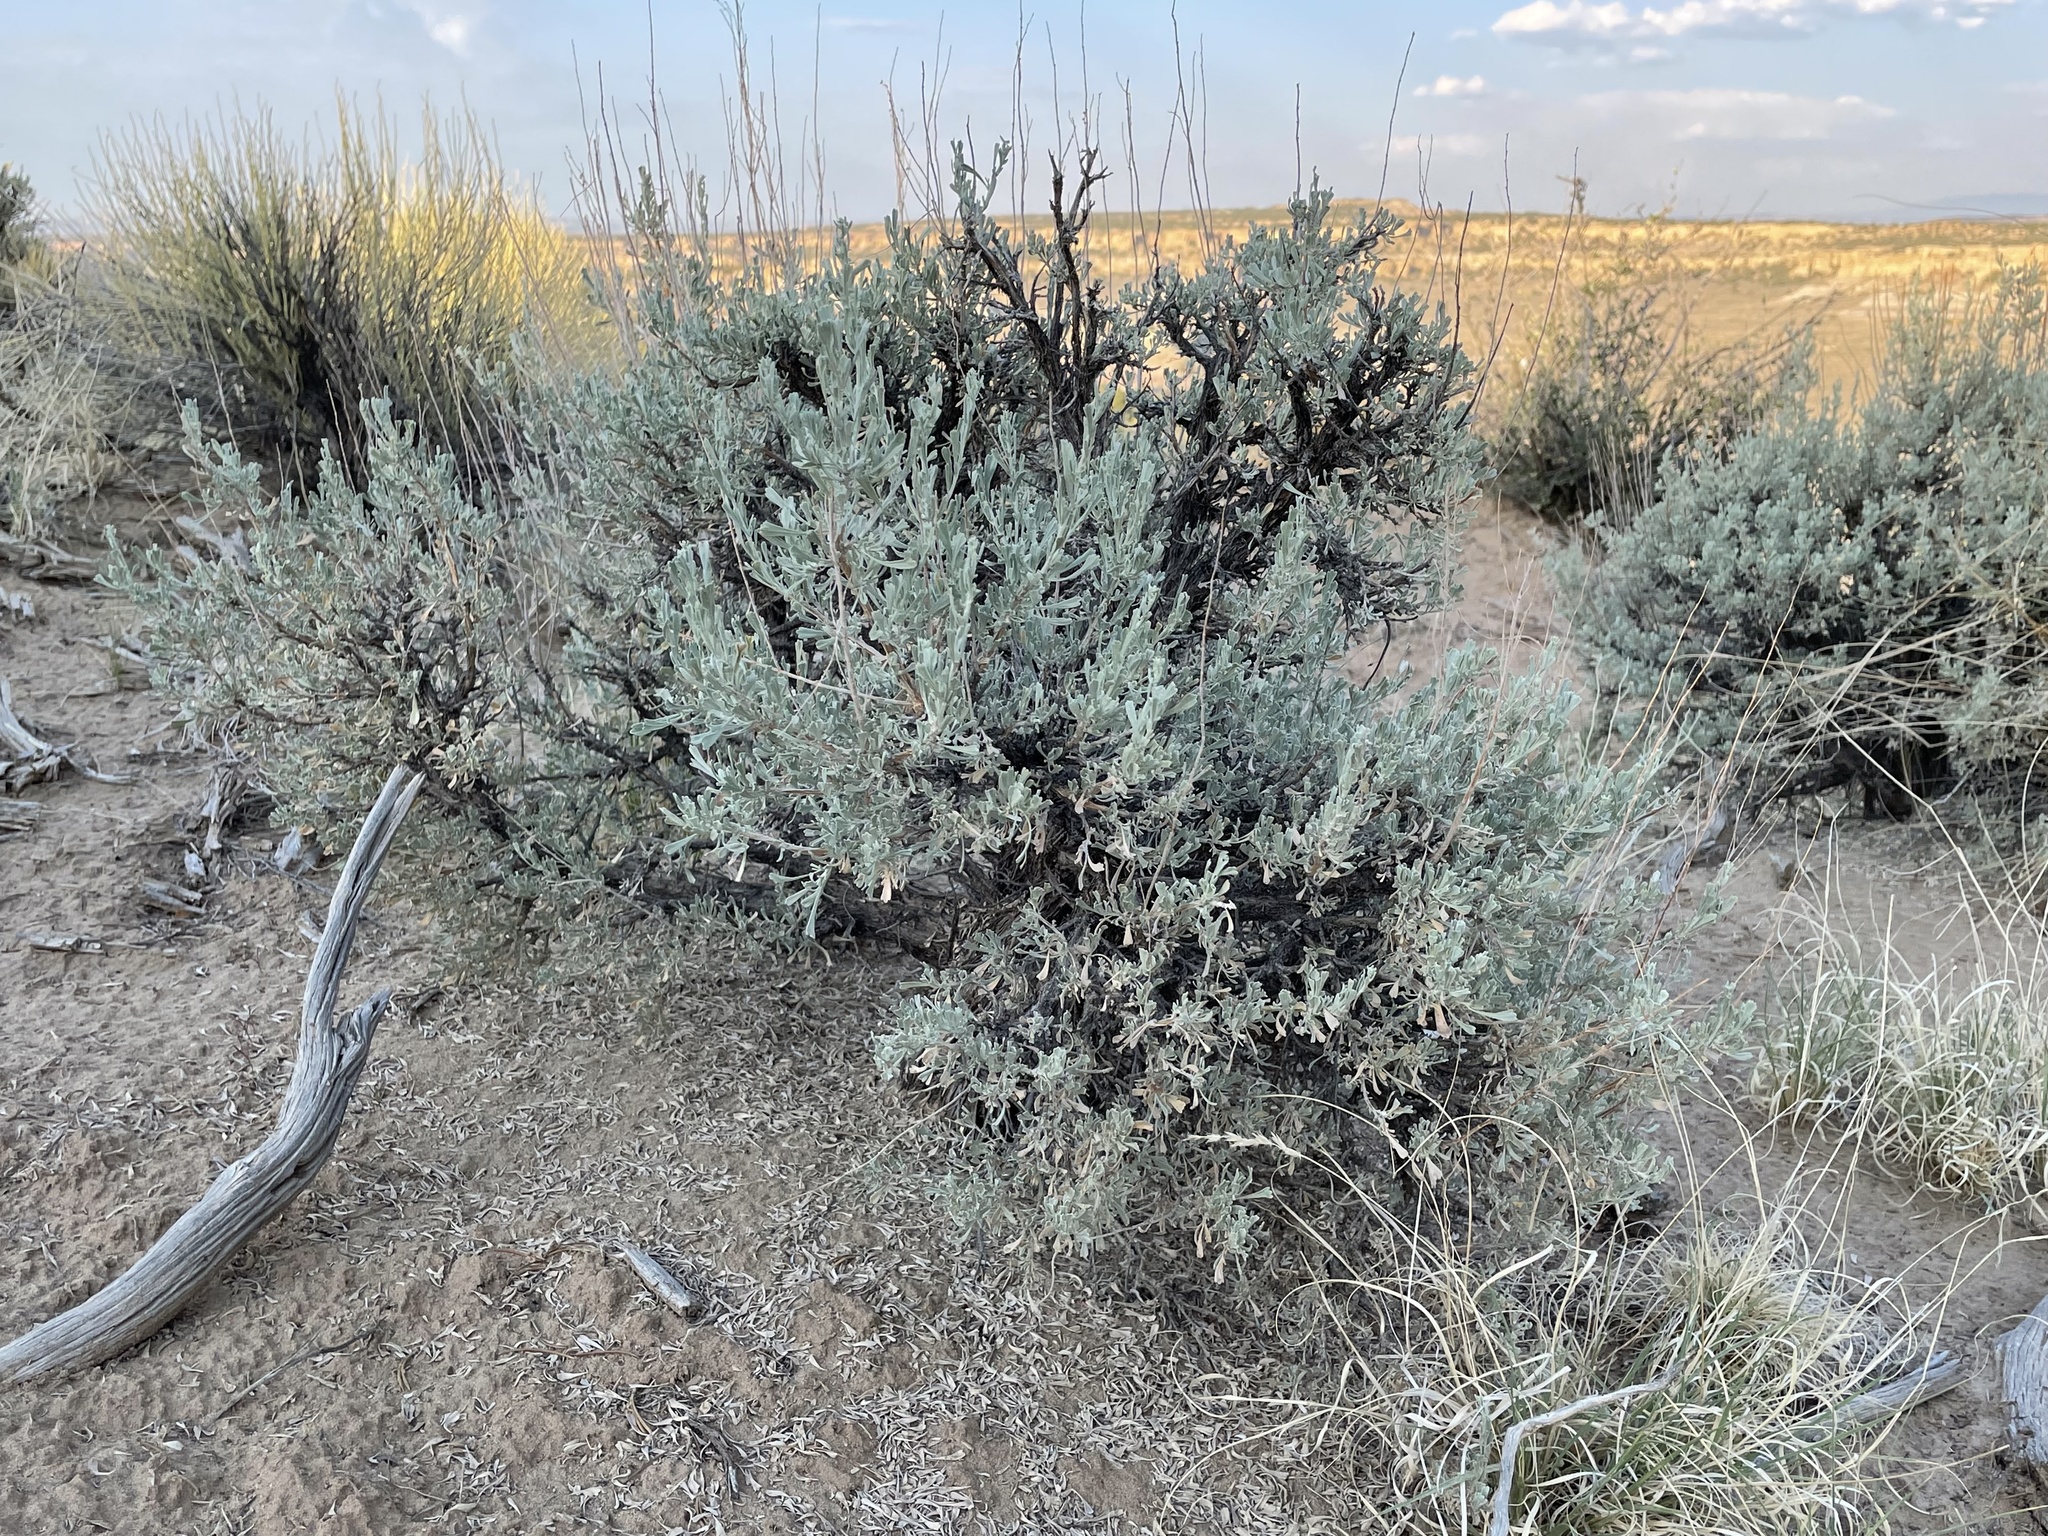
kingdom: Plantae
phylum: Tracheophyta
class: Magnoliopsida
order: Asterales
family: Asteraceae
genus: Artemisia
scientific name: Artemisia tridentata
